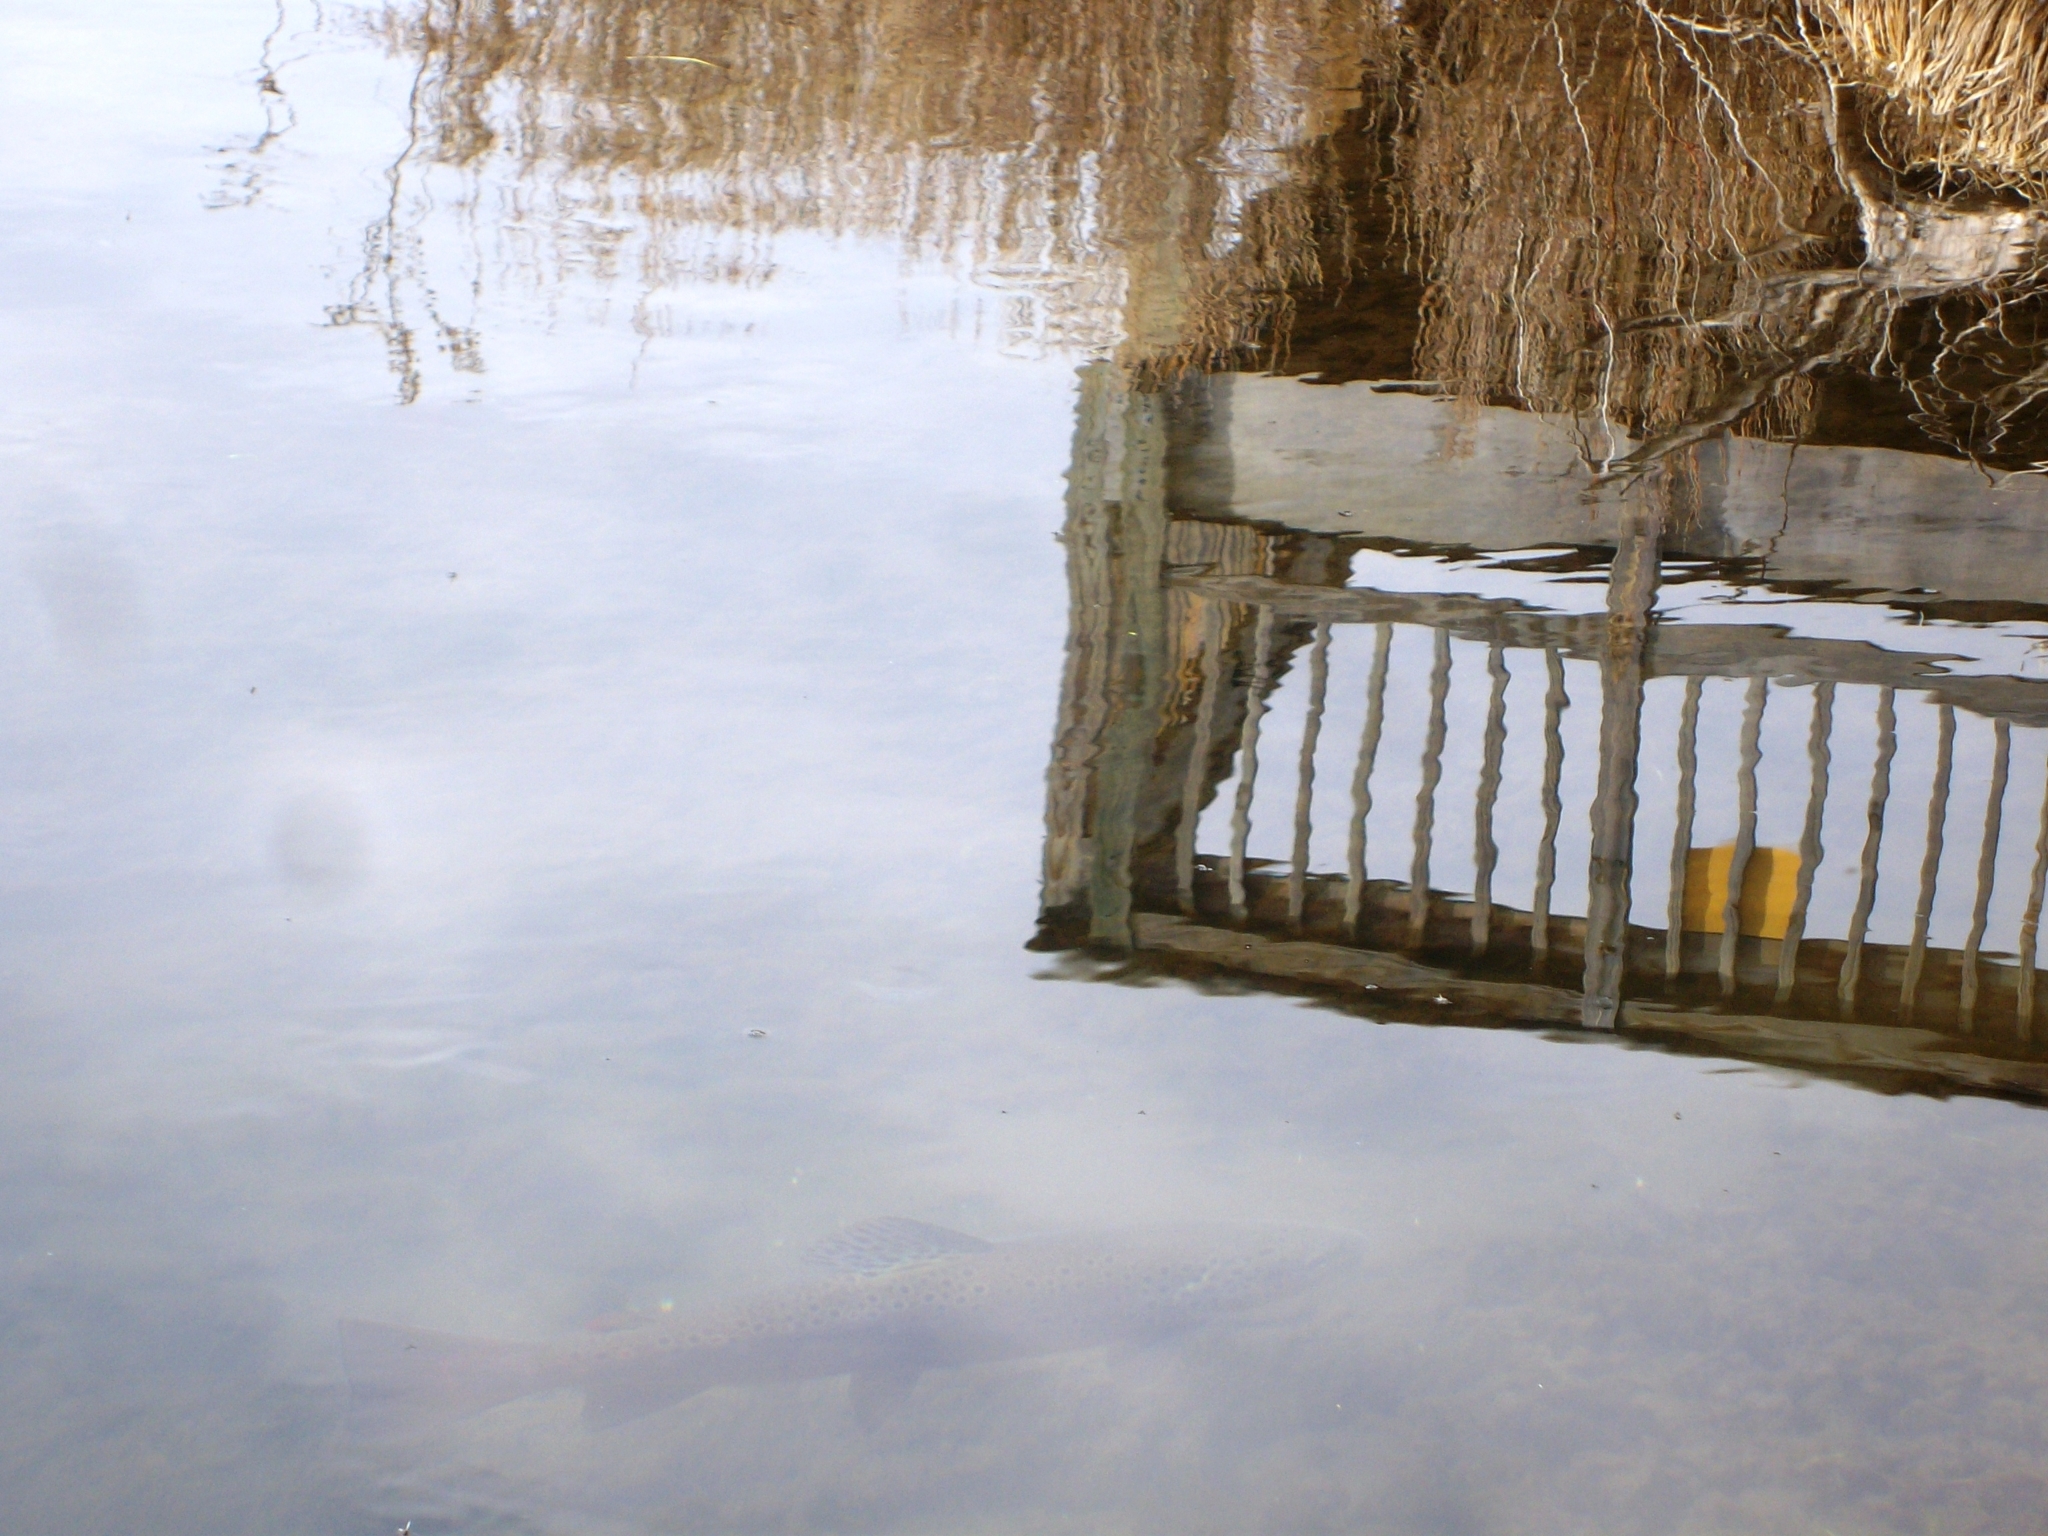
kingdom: Animalia
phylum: Chordata
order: Salmoniformes
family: Salmonidae
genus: Salmo
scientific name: Salmo trutta
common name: Brown trout
